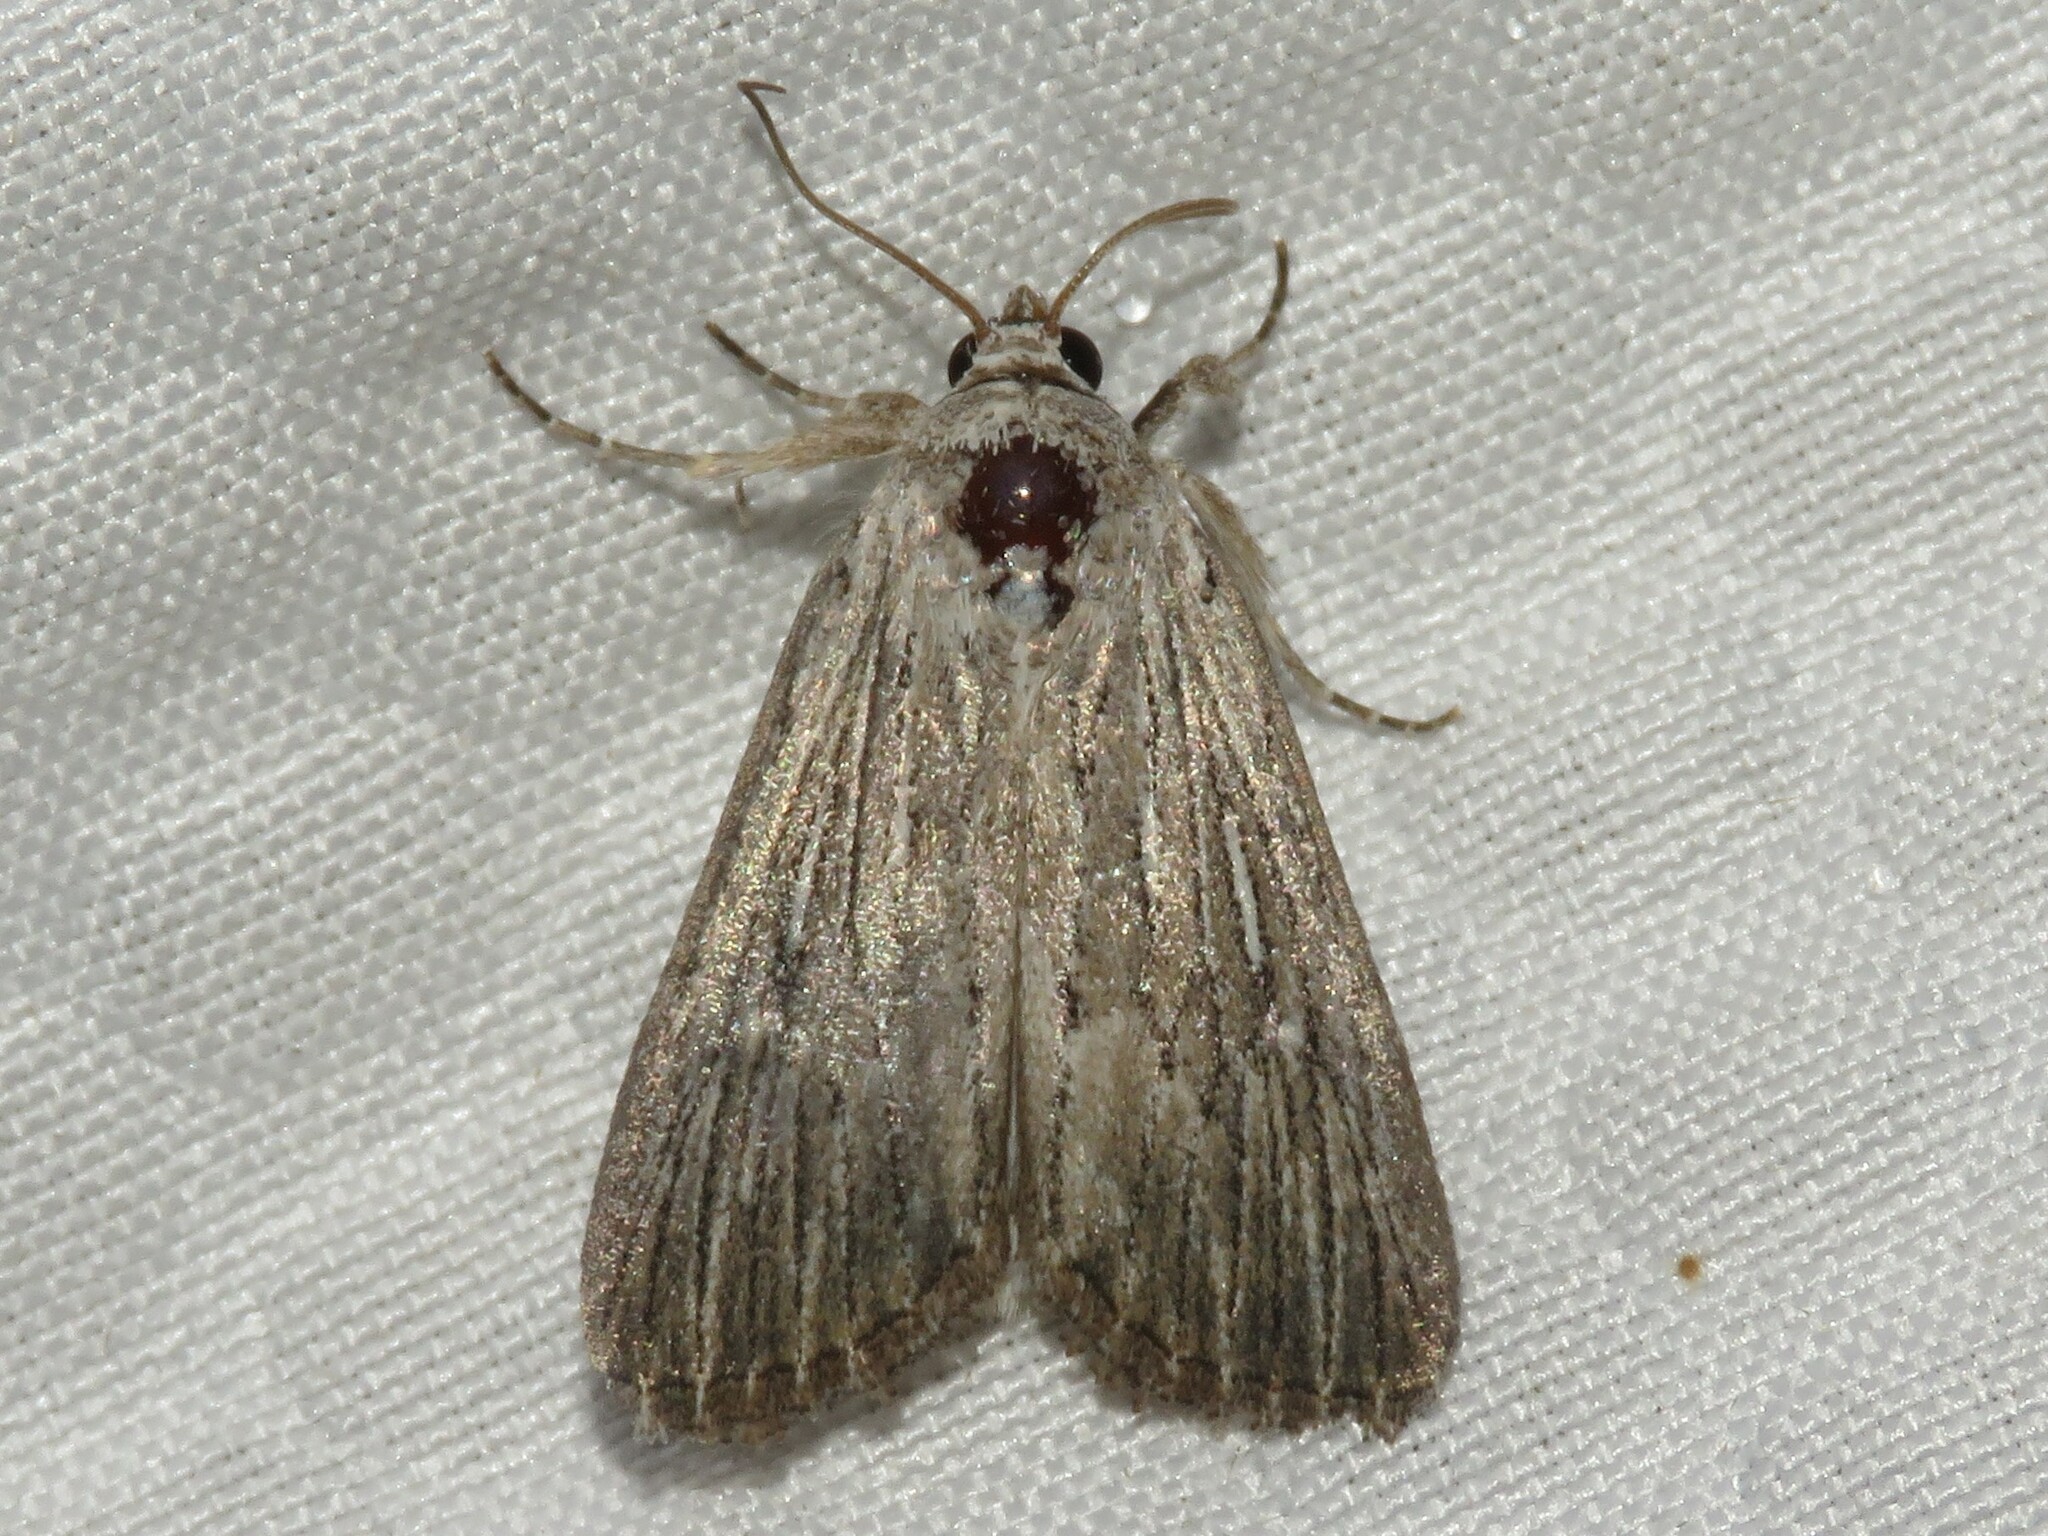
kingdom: Animalia
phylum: Arthropoda
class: Insecta
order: Lepidoptera
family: Noctuidae
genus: Catabena
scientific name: Catabena lineolata
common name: Fine-lined sallow
